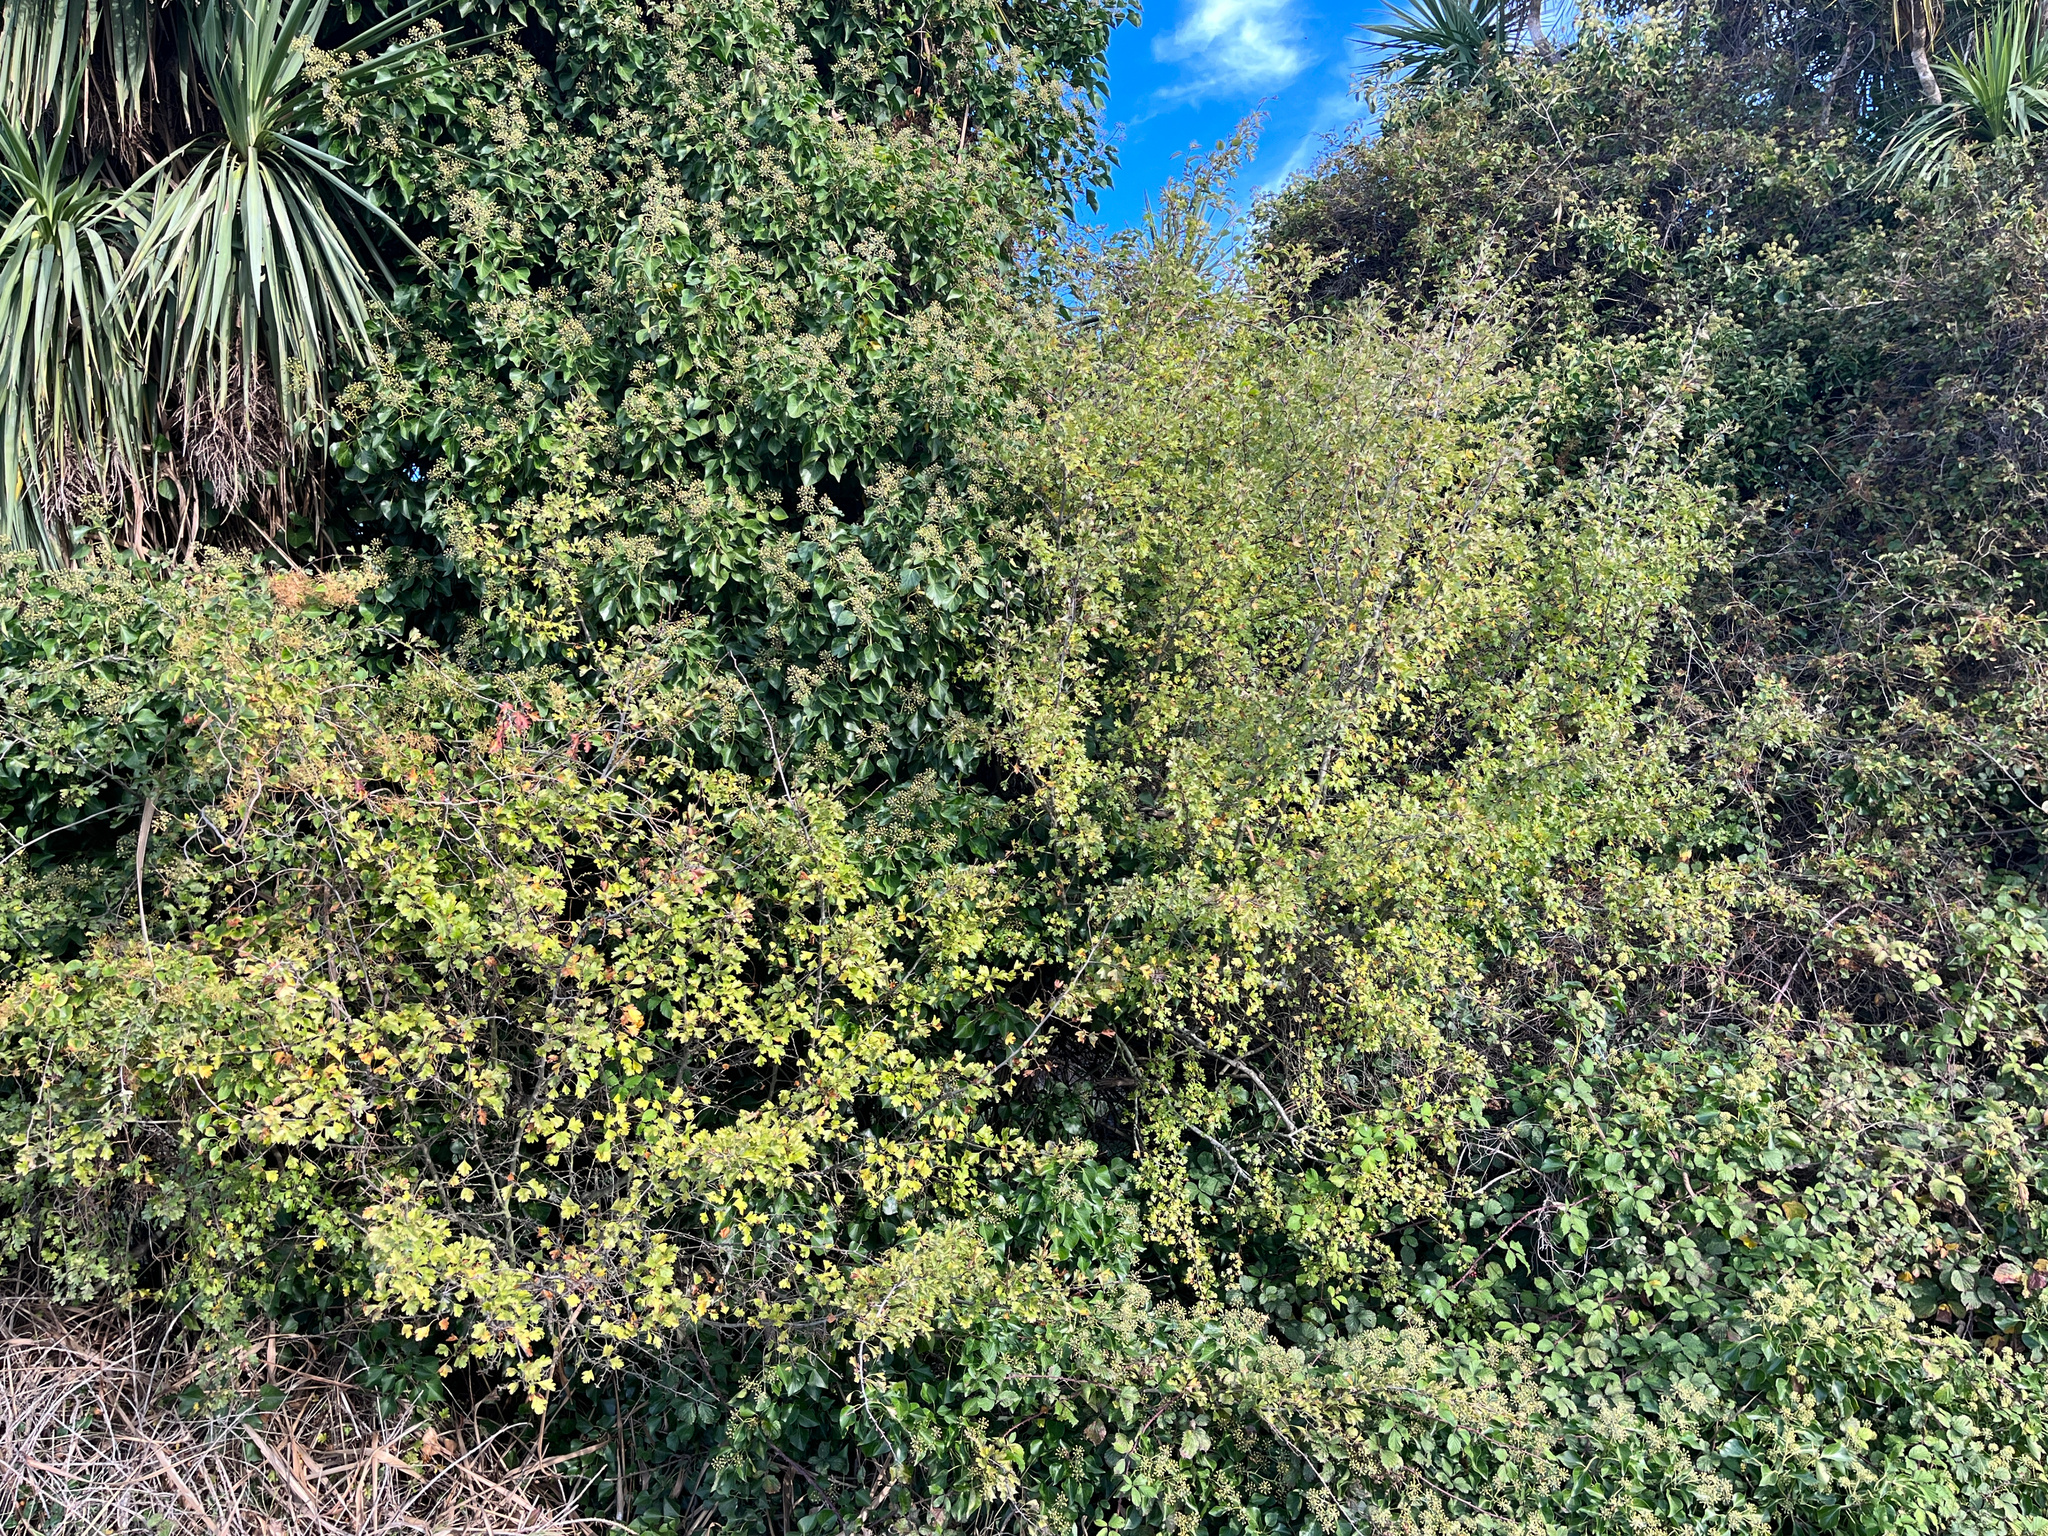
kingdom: Plantae
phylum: Tracheophyta
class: Magnoliopsida
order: Rosales
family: Rosaceae
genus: Crataegus
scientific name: Crataegus monogyna
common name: Hawthorn
